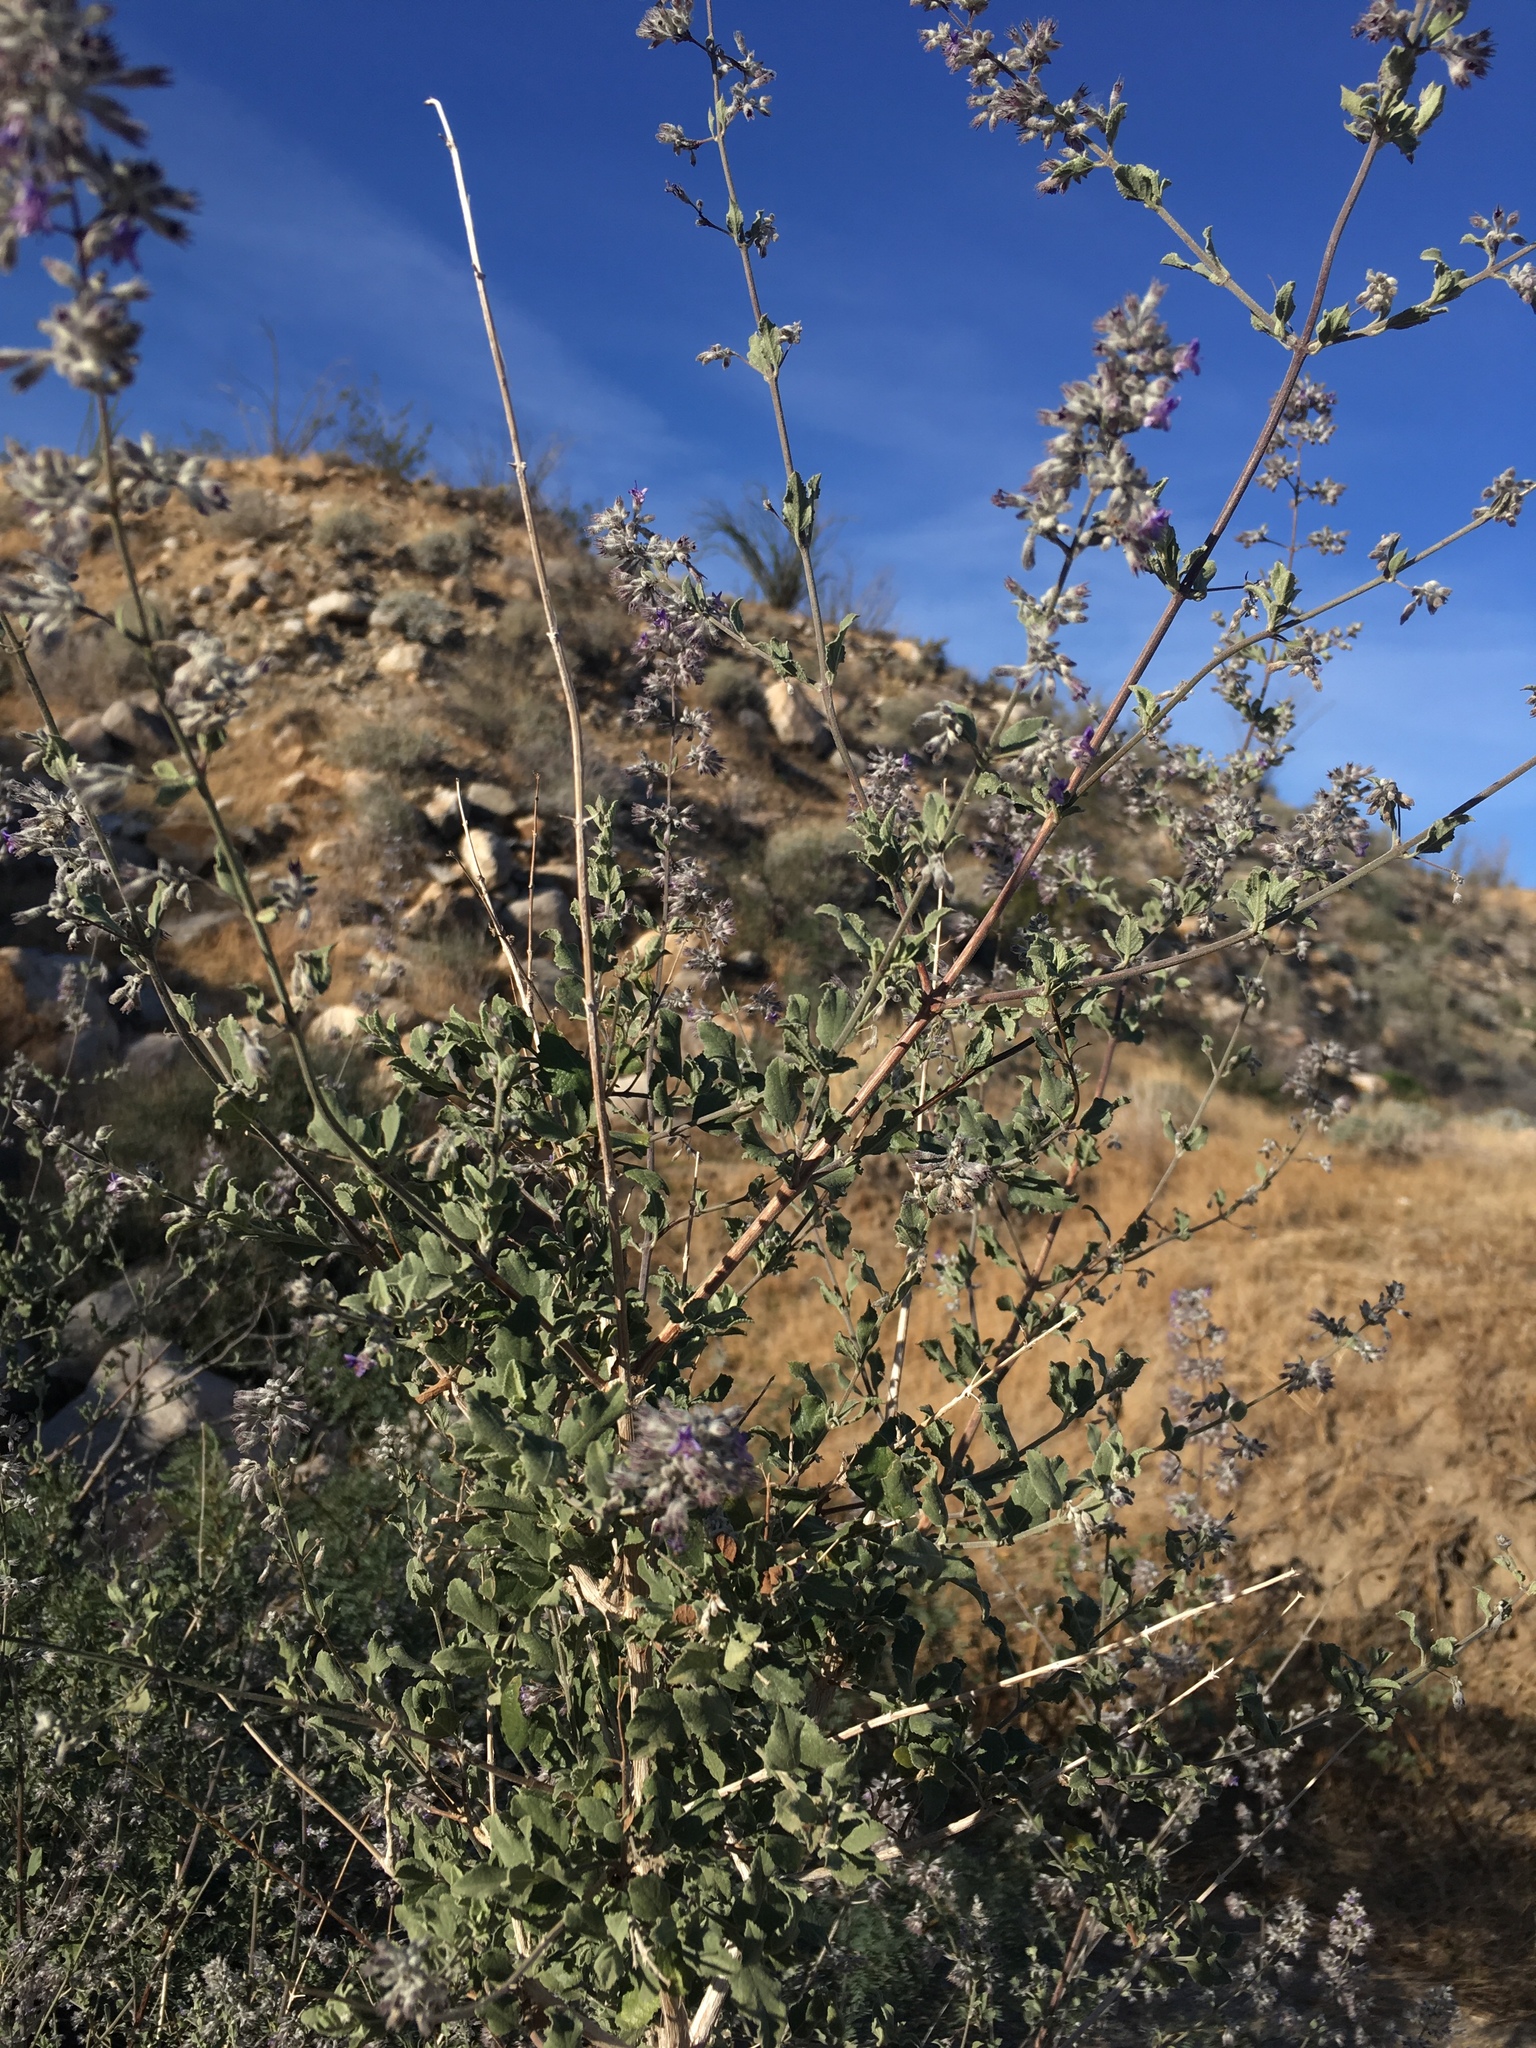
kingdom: Plantae
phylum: Tracheophyta
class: Magnoliopsida
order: Lamiales
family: Lamiaceae
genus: Condea
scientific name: Condea emoryi
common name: Chia
